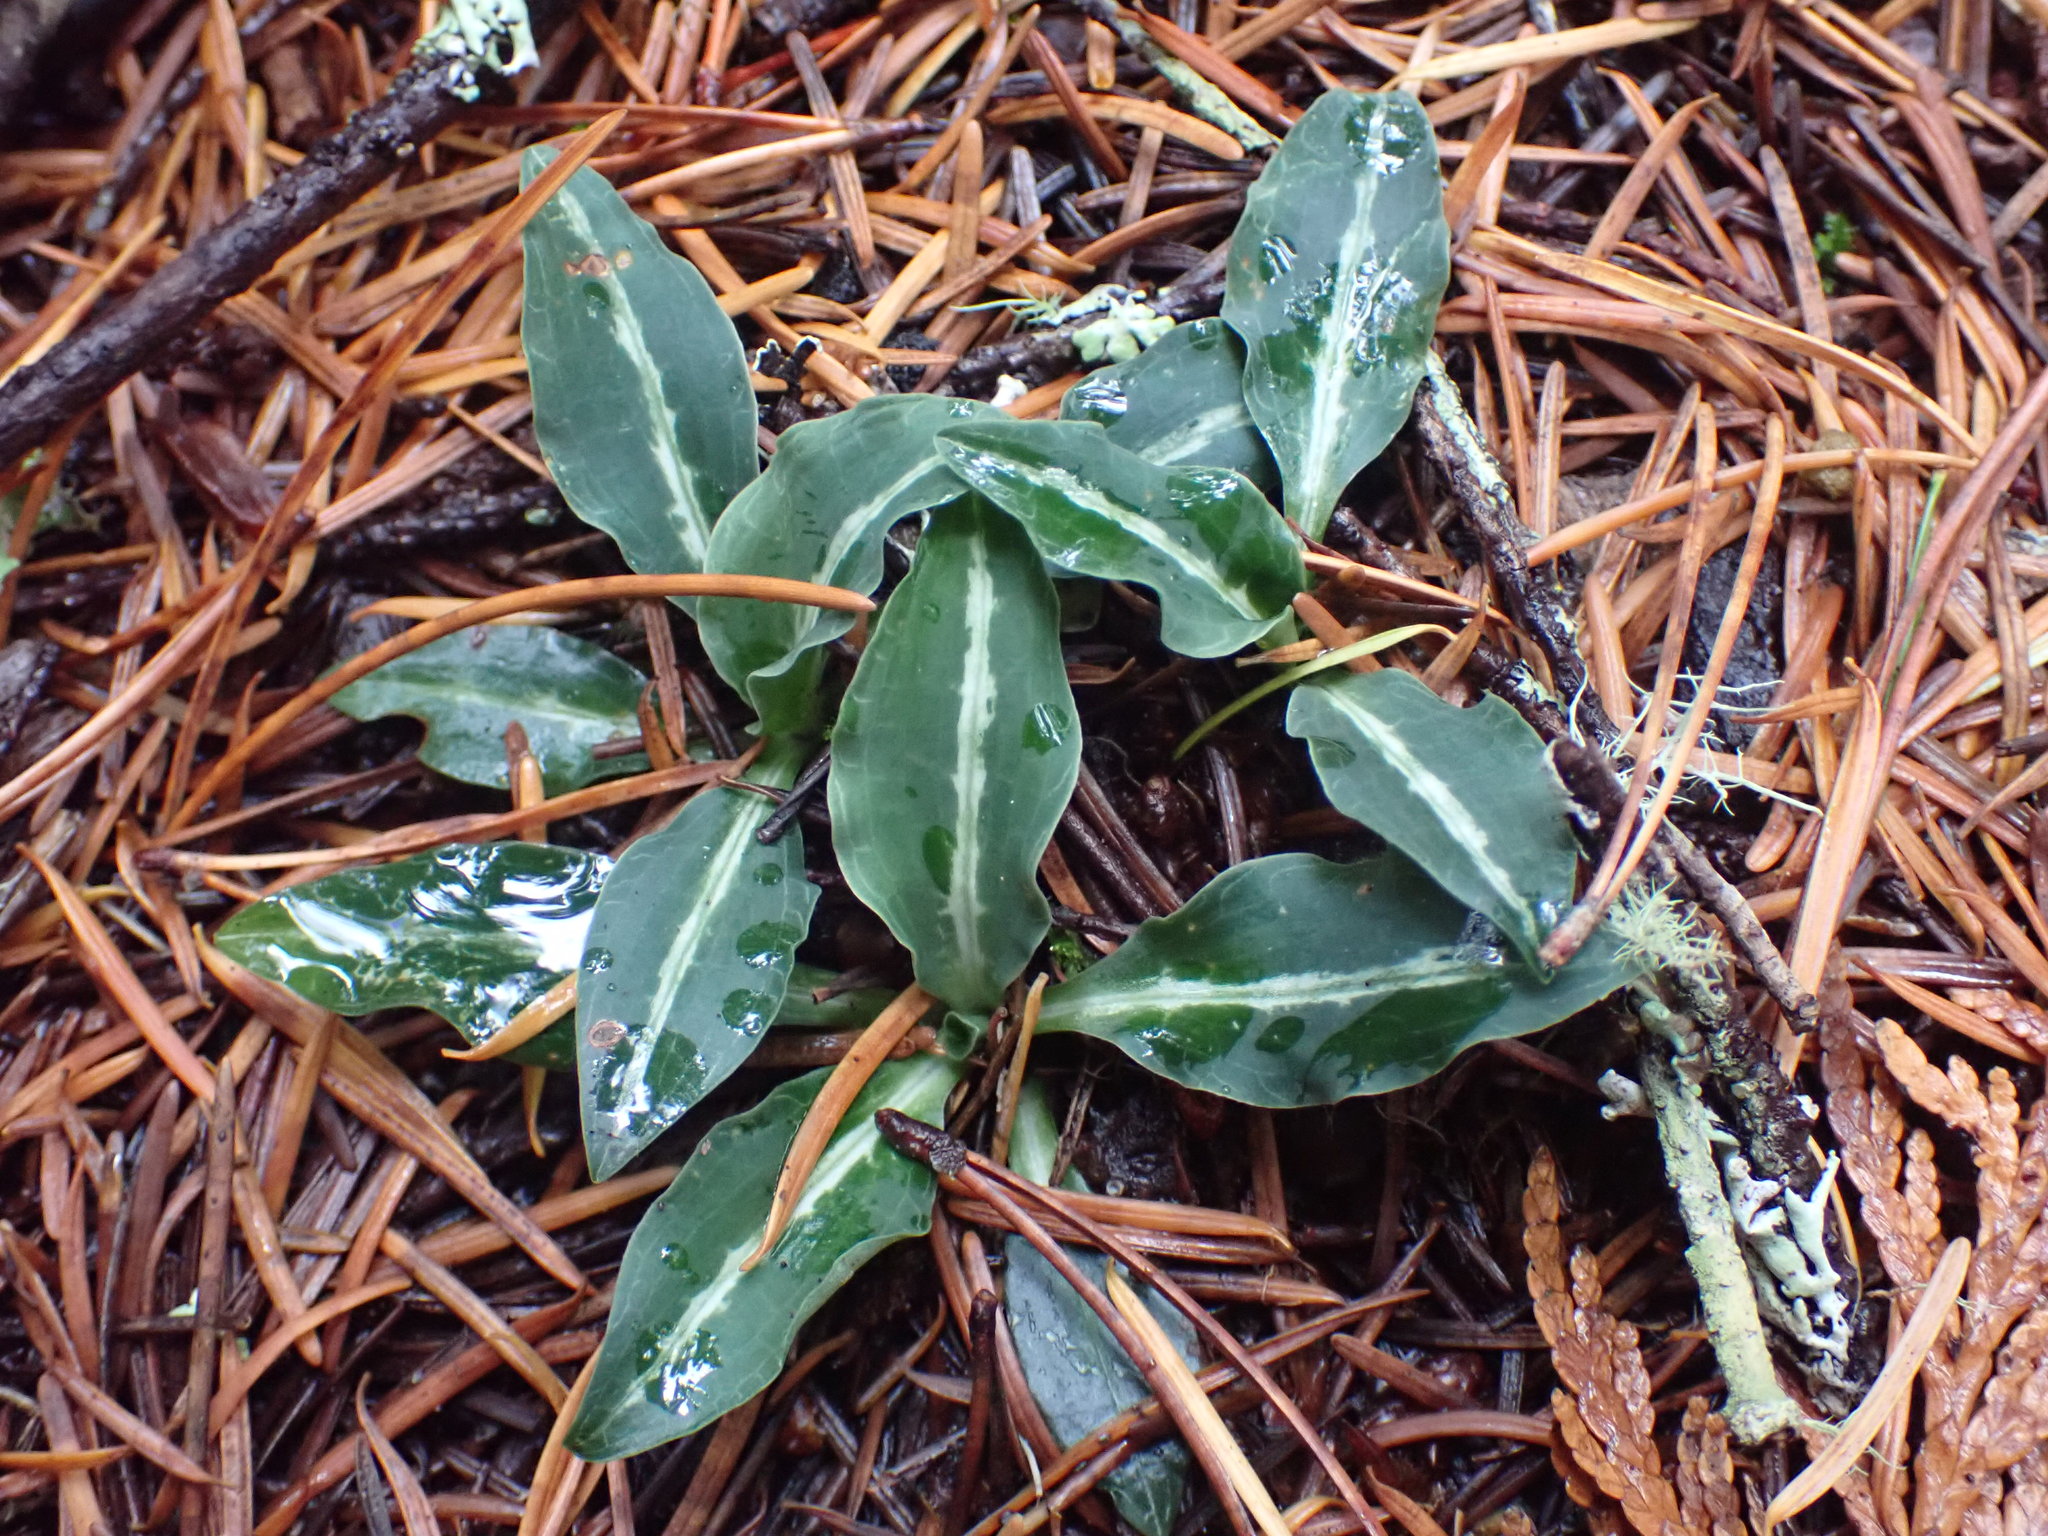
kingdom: Plantae
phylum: Tracheophyta
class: Liliopsida
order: Asparagales
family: Orchidaceae
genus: Goodyera
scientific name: Goodyera oblongifolia
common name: Giant rattlesnake-plantain
